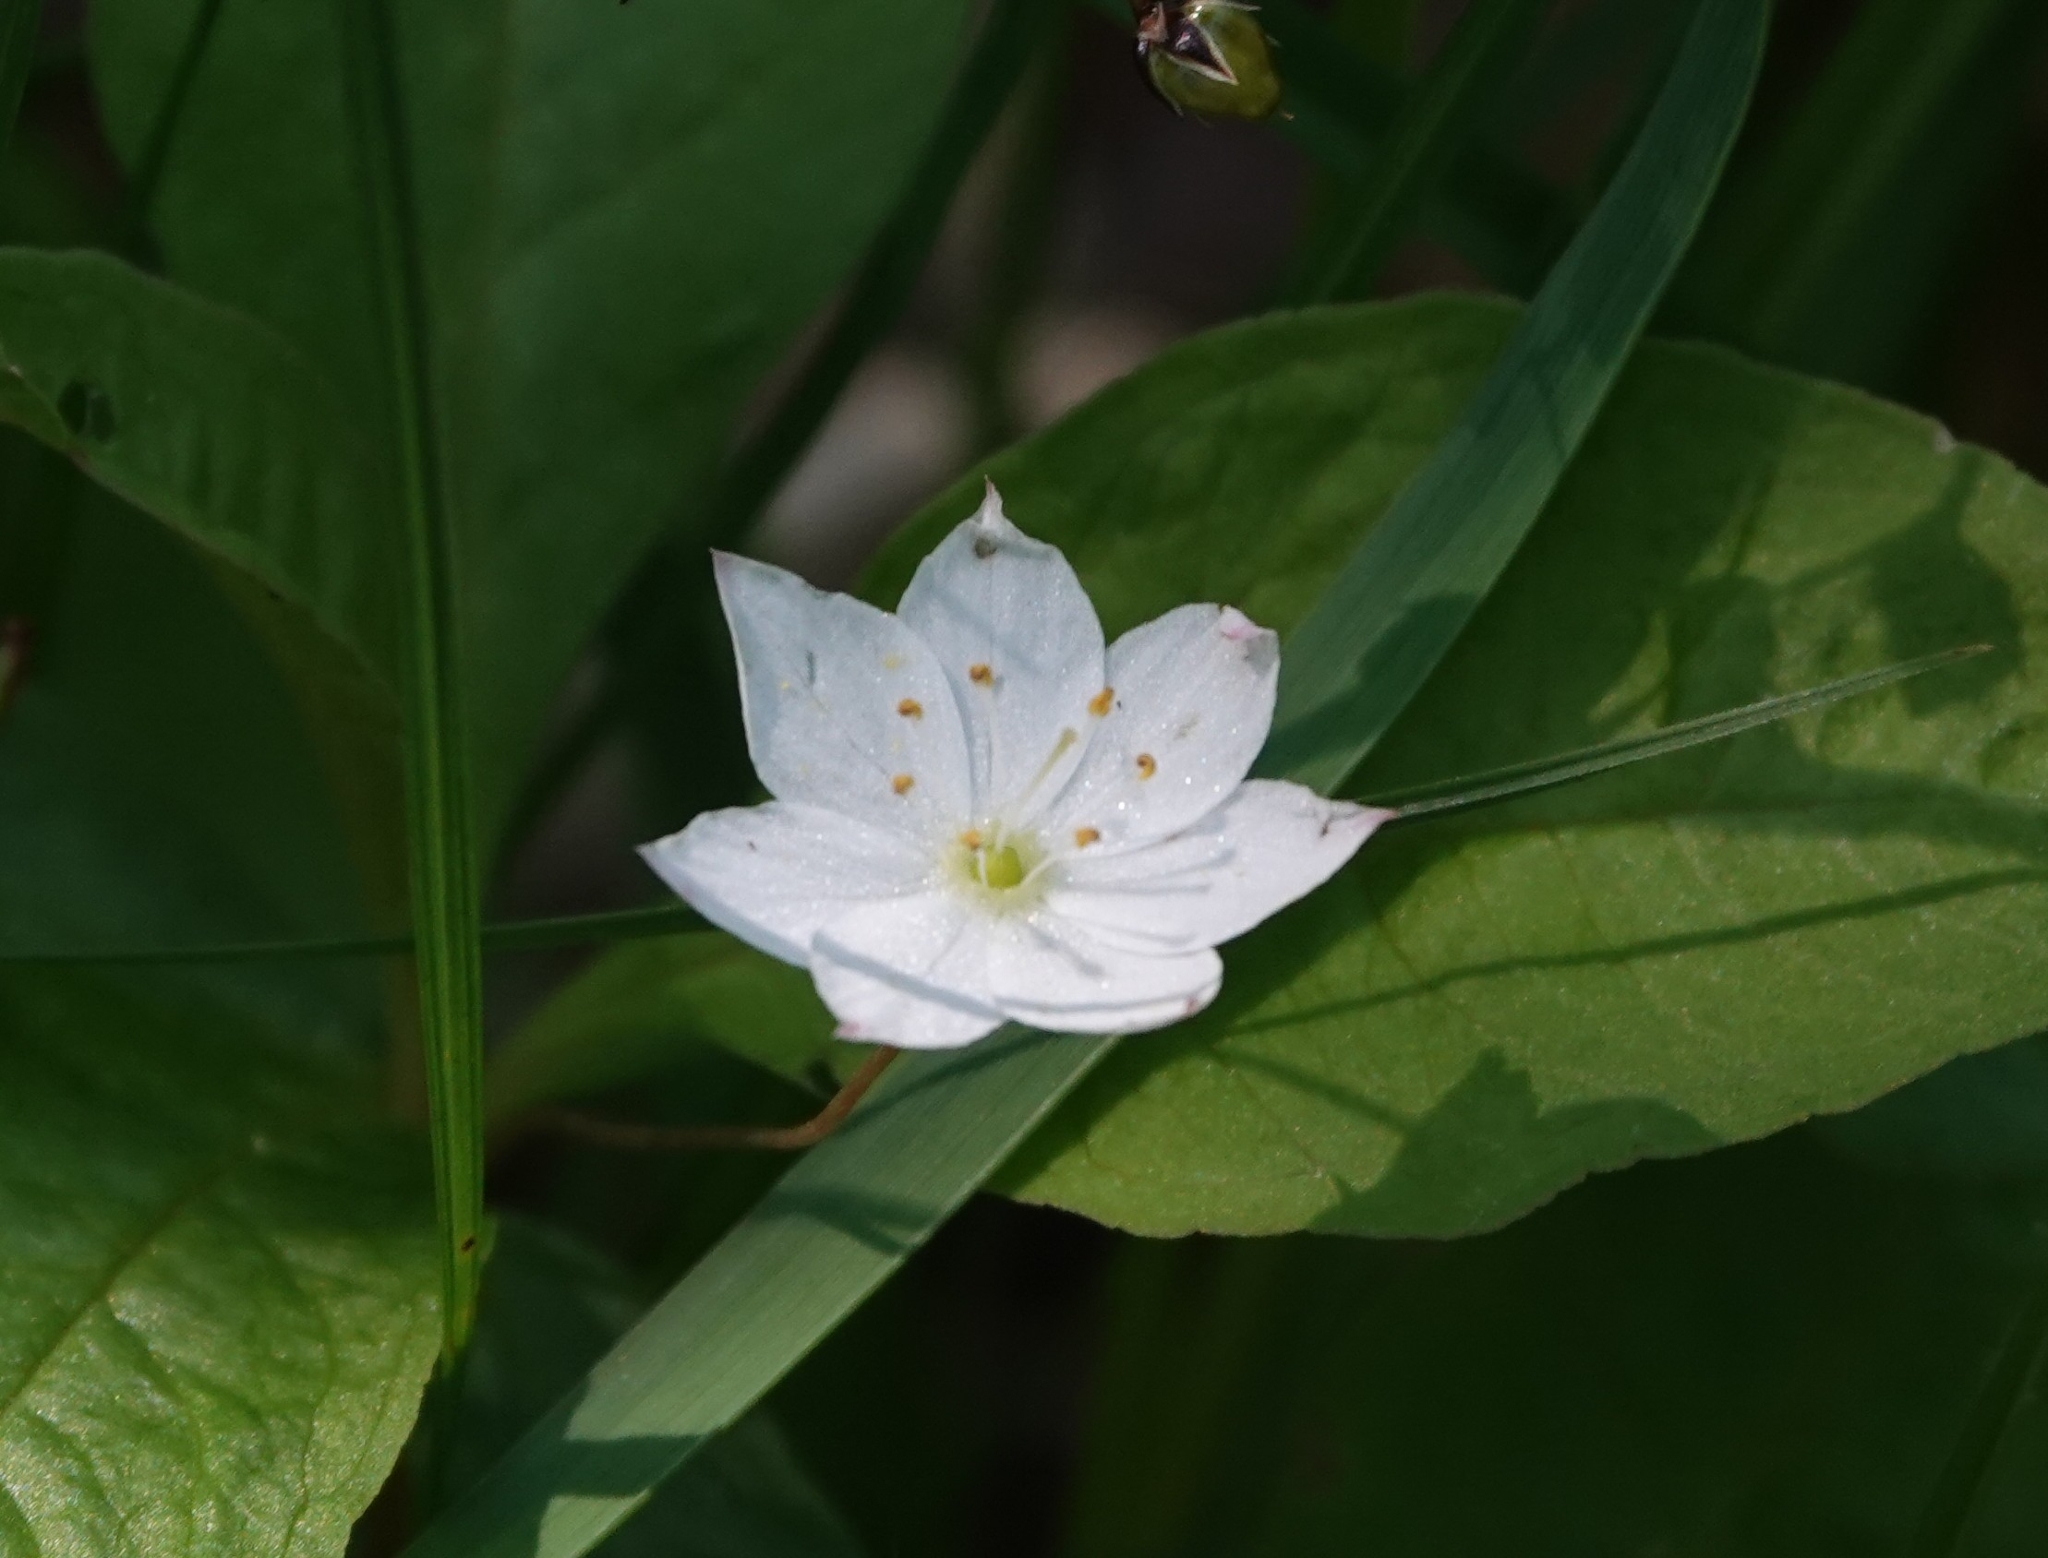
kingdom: Plantae
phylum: Tracheophyta
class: Magnoliopsida
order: Ericales
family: Primulaceae
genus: Lysimachia
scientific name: Lysimachia europaea
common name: Arctic starflower
